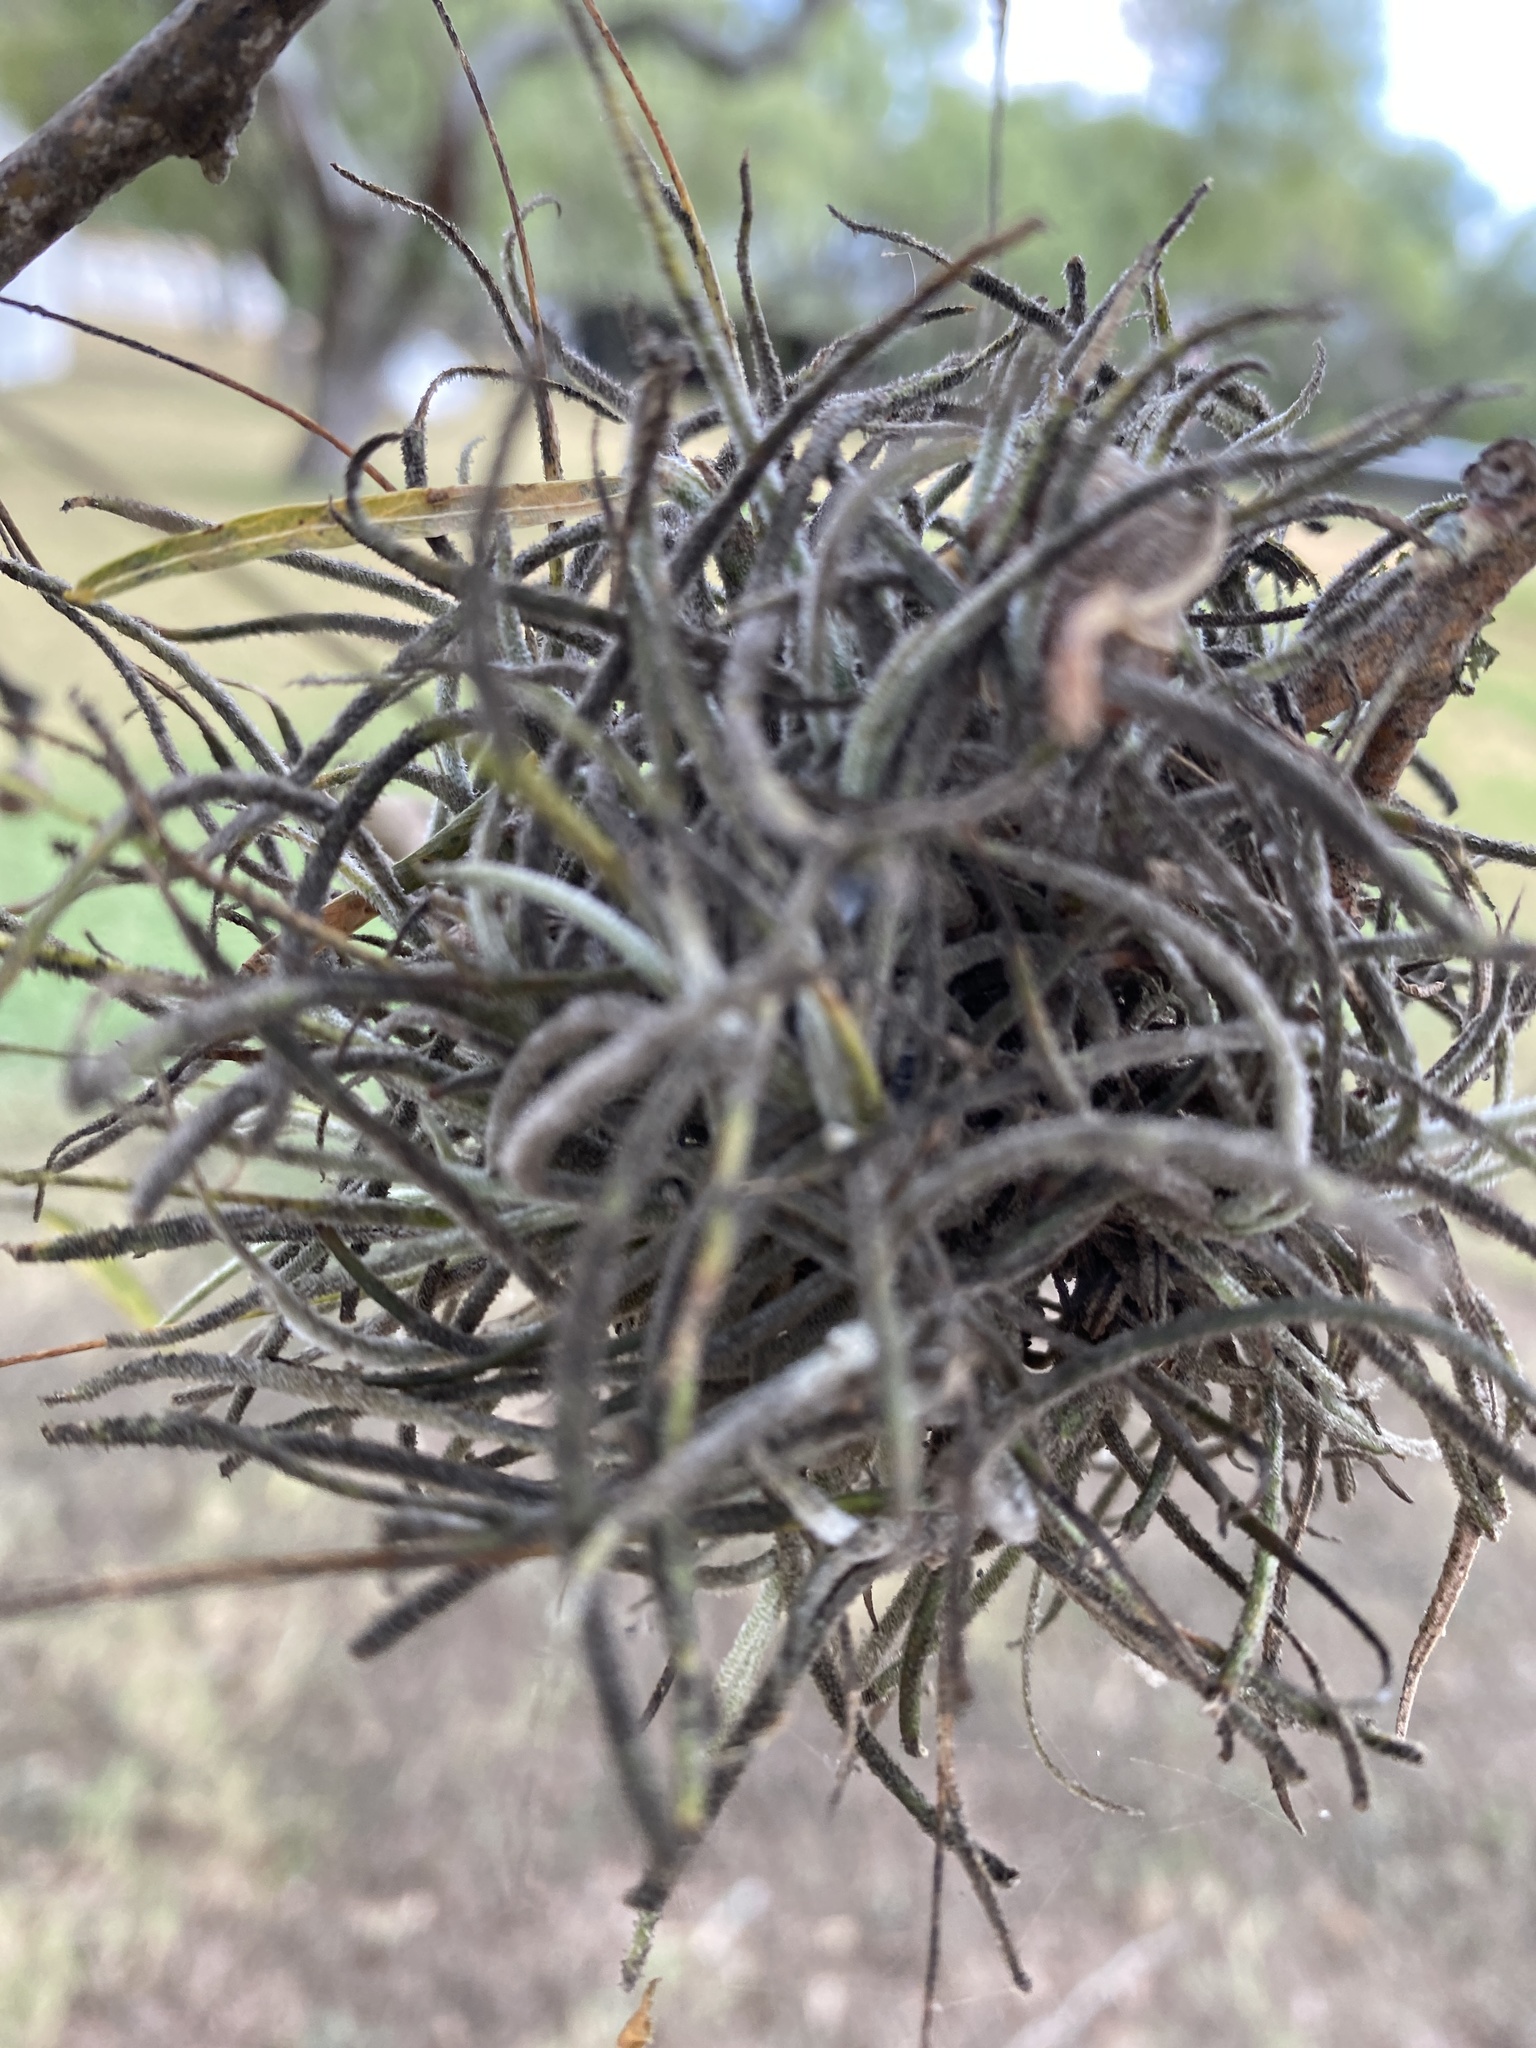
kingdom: Plantae
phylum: Tracheophyta
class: Liliopsida
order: Poales
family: Bromeliaceae
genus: Tillandsia
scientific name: Tillandsia recurvata
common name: Small ballmoss
